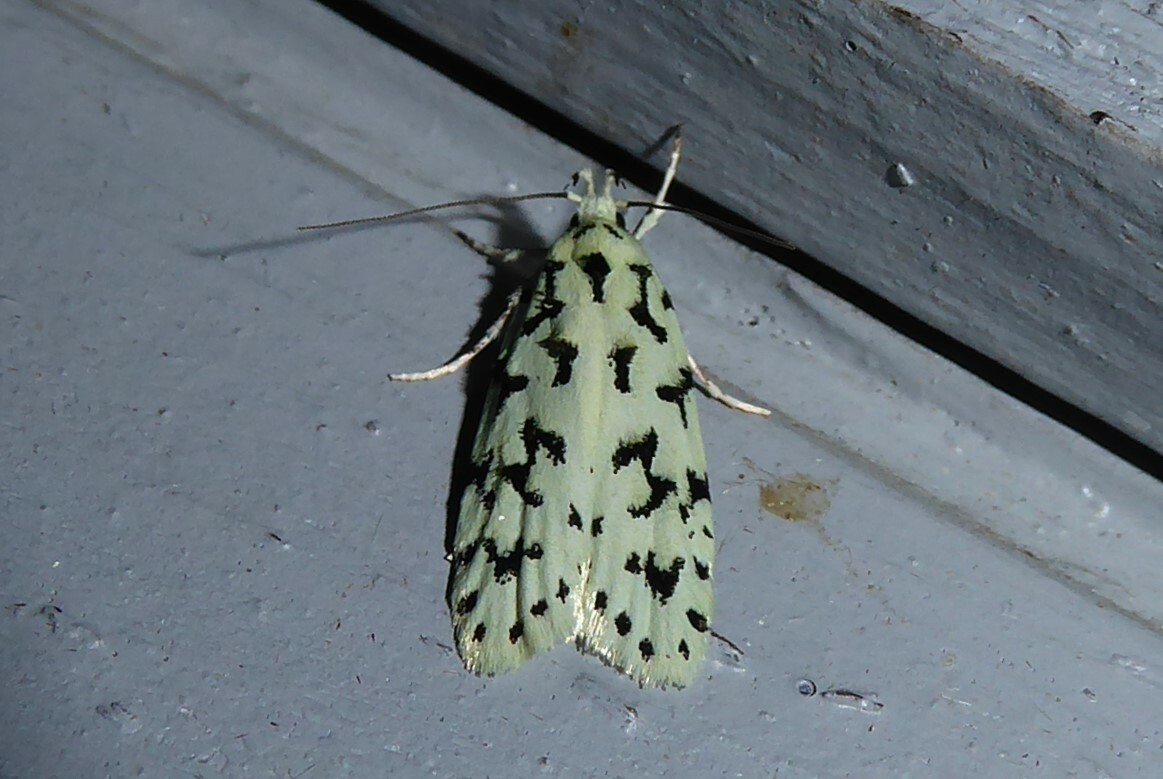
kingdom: Animalia
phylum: Arthropoda
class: Insecta
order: Lepidoptera
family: Oecophoridae
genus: Izatha
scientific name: Izatha huttoni
